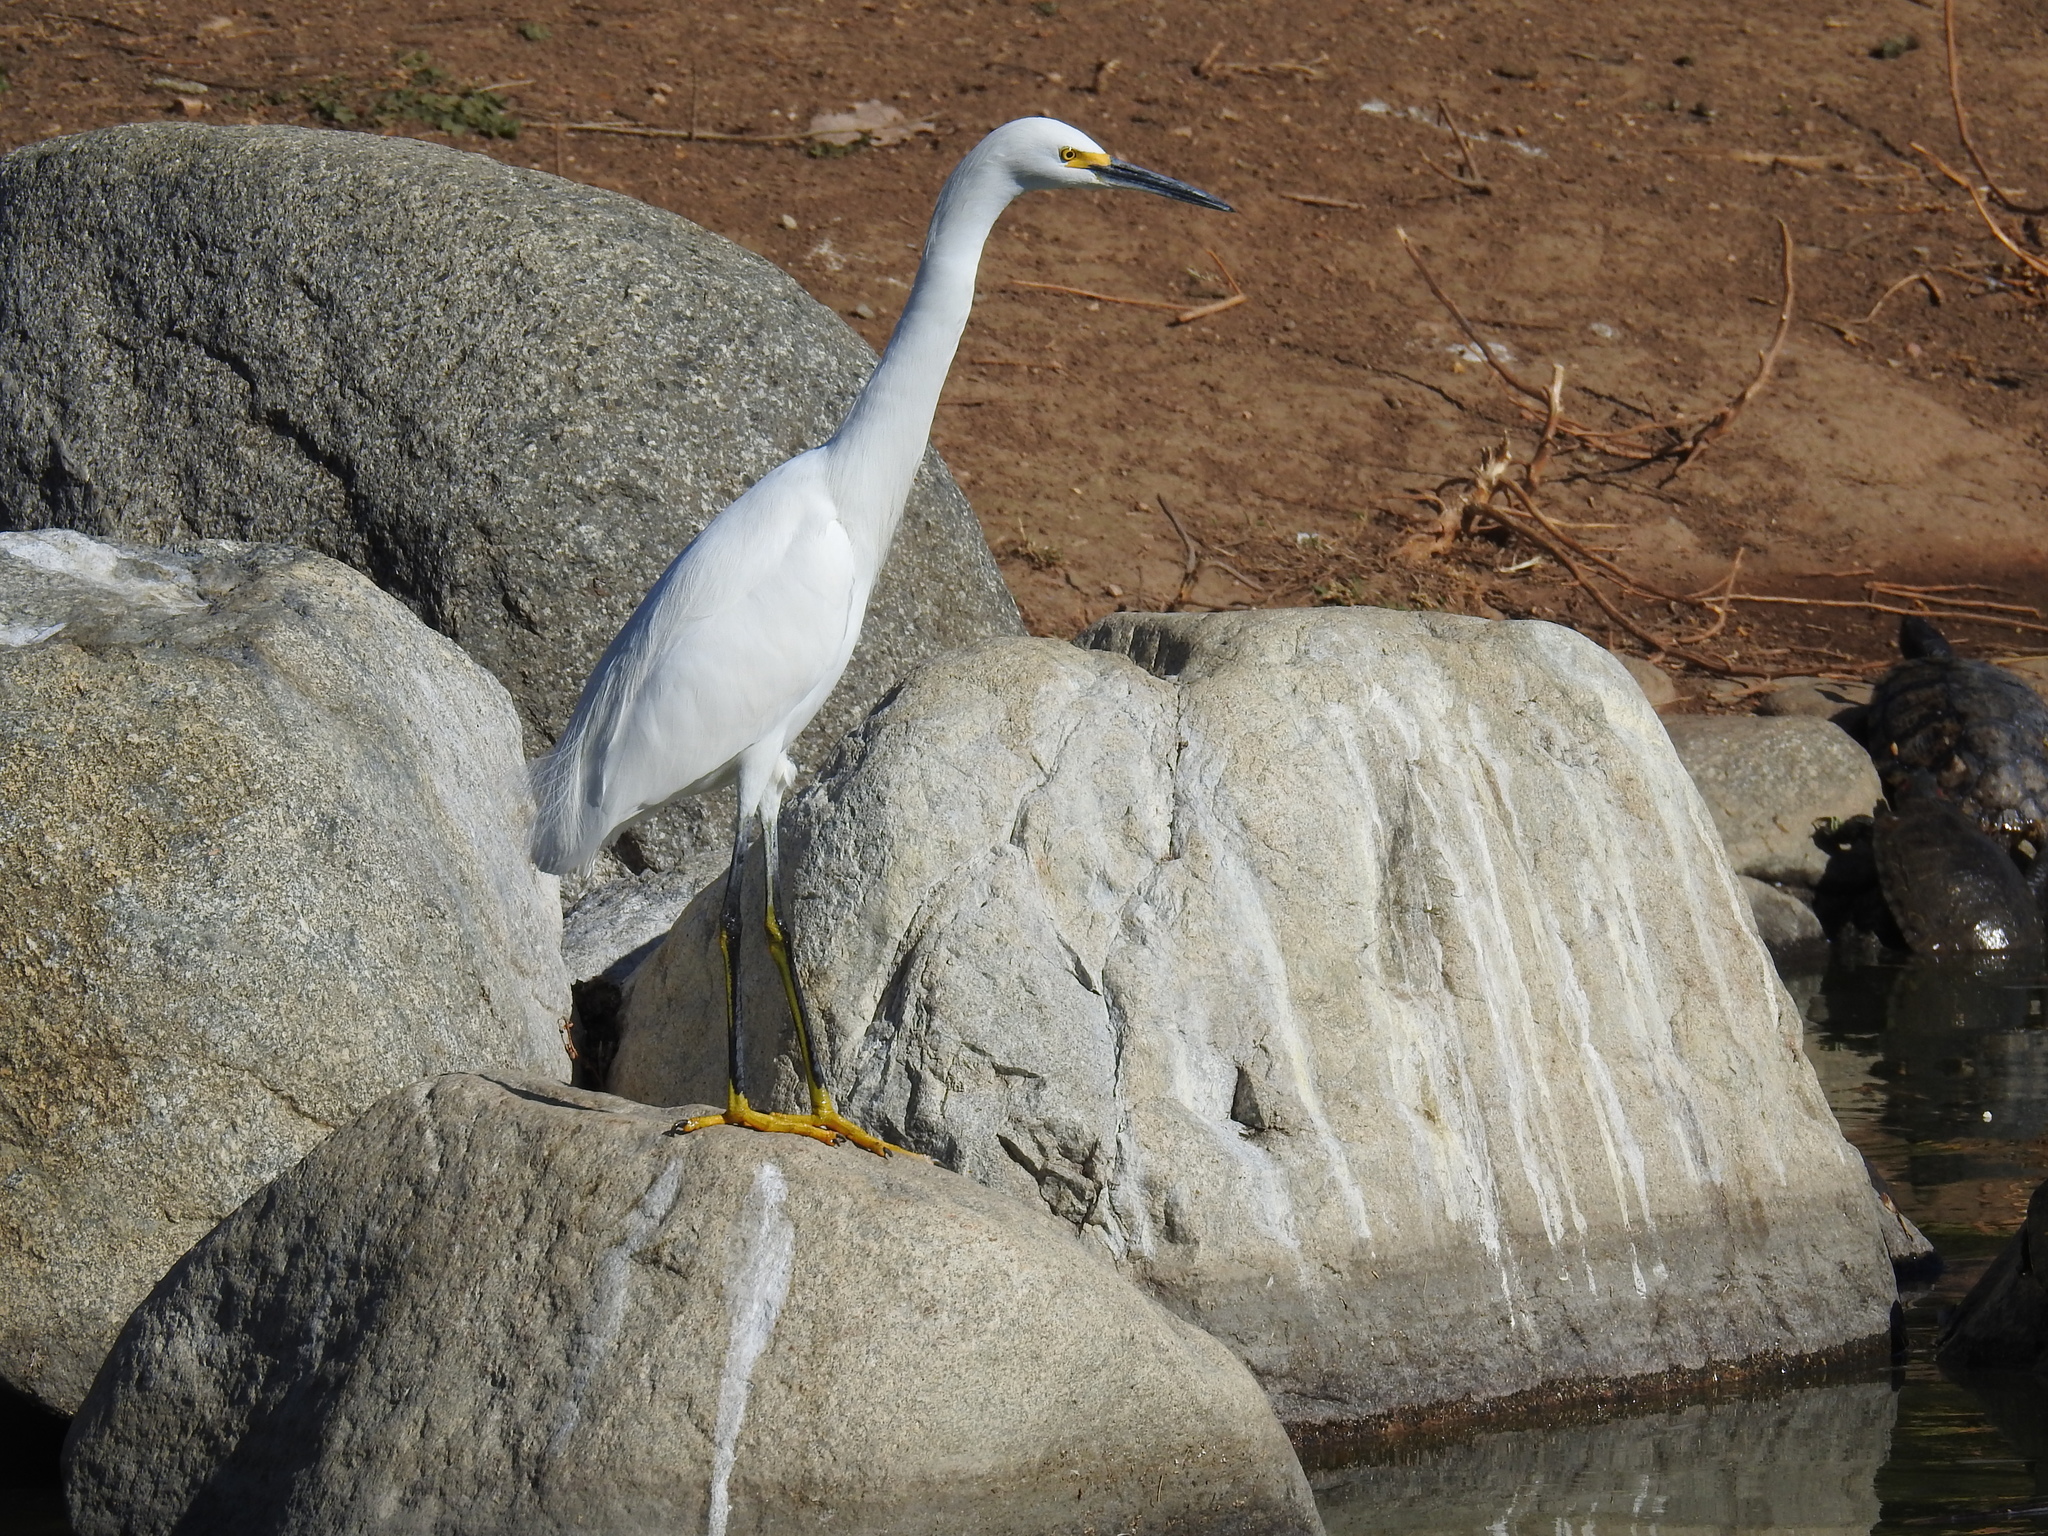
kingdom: Animalia
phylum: Chordata
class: Aves
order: Pelecaniformes
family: Ardeidae
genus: Egretta
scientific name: Egretta thula
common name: Snowy egret
